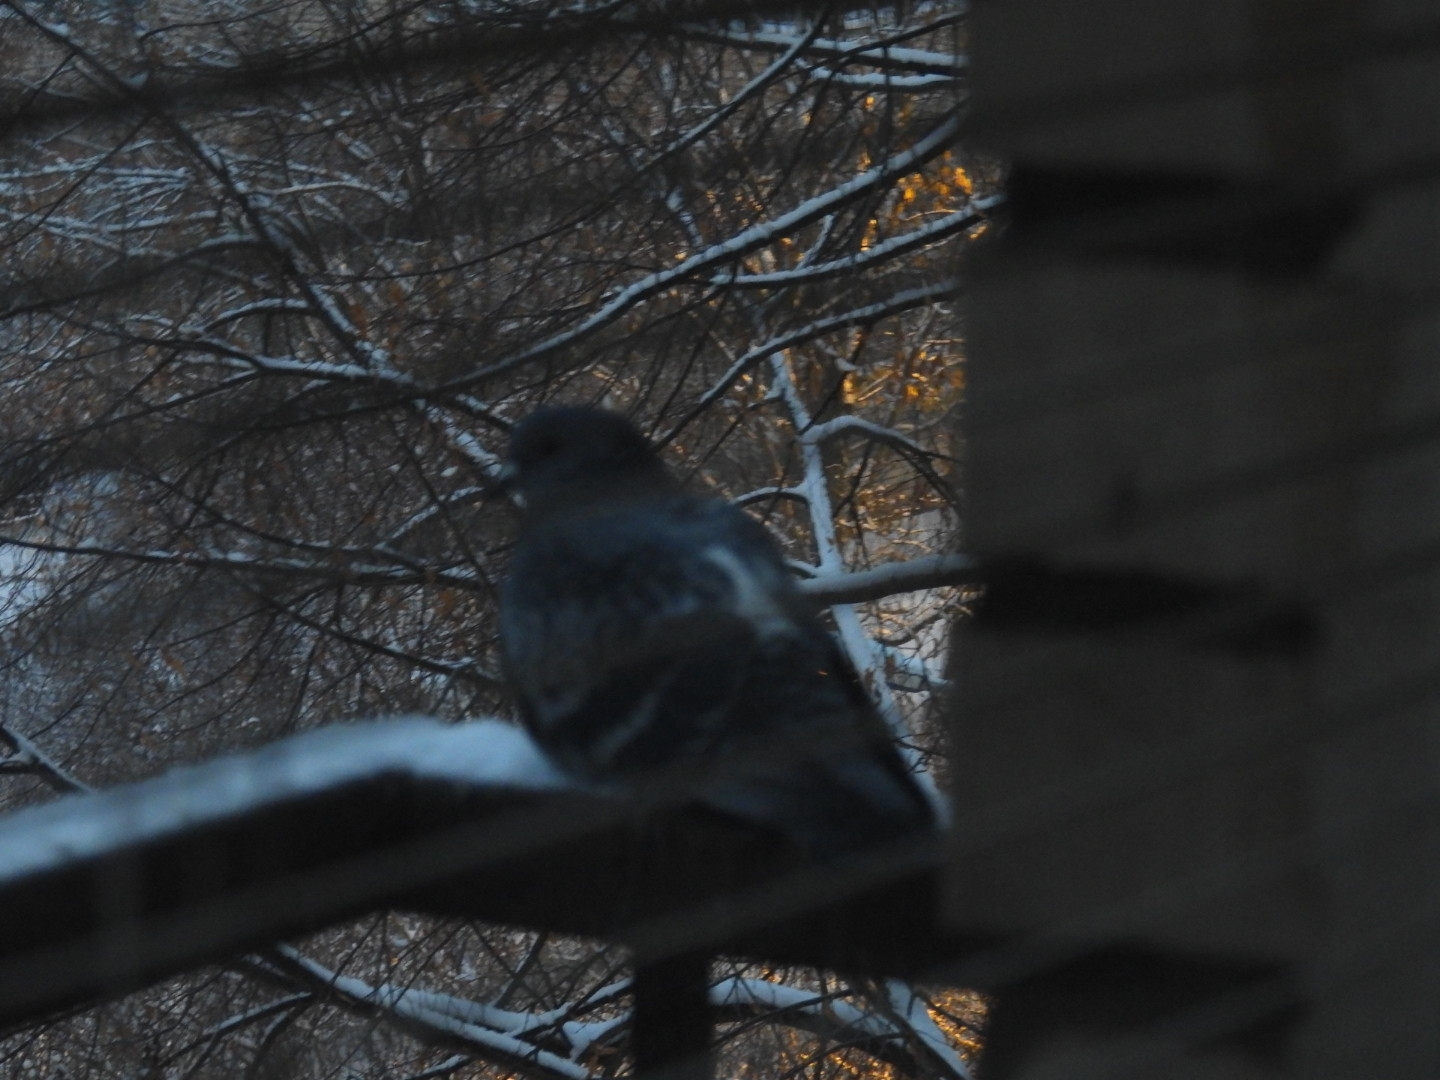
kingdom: Animalia
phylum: Chordata
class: Aves
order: Columbiformes
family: Columbidae
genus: Columba
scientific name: Columba livia
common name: Rock pigeon
